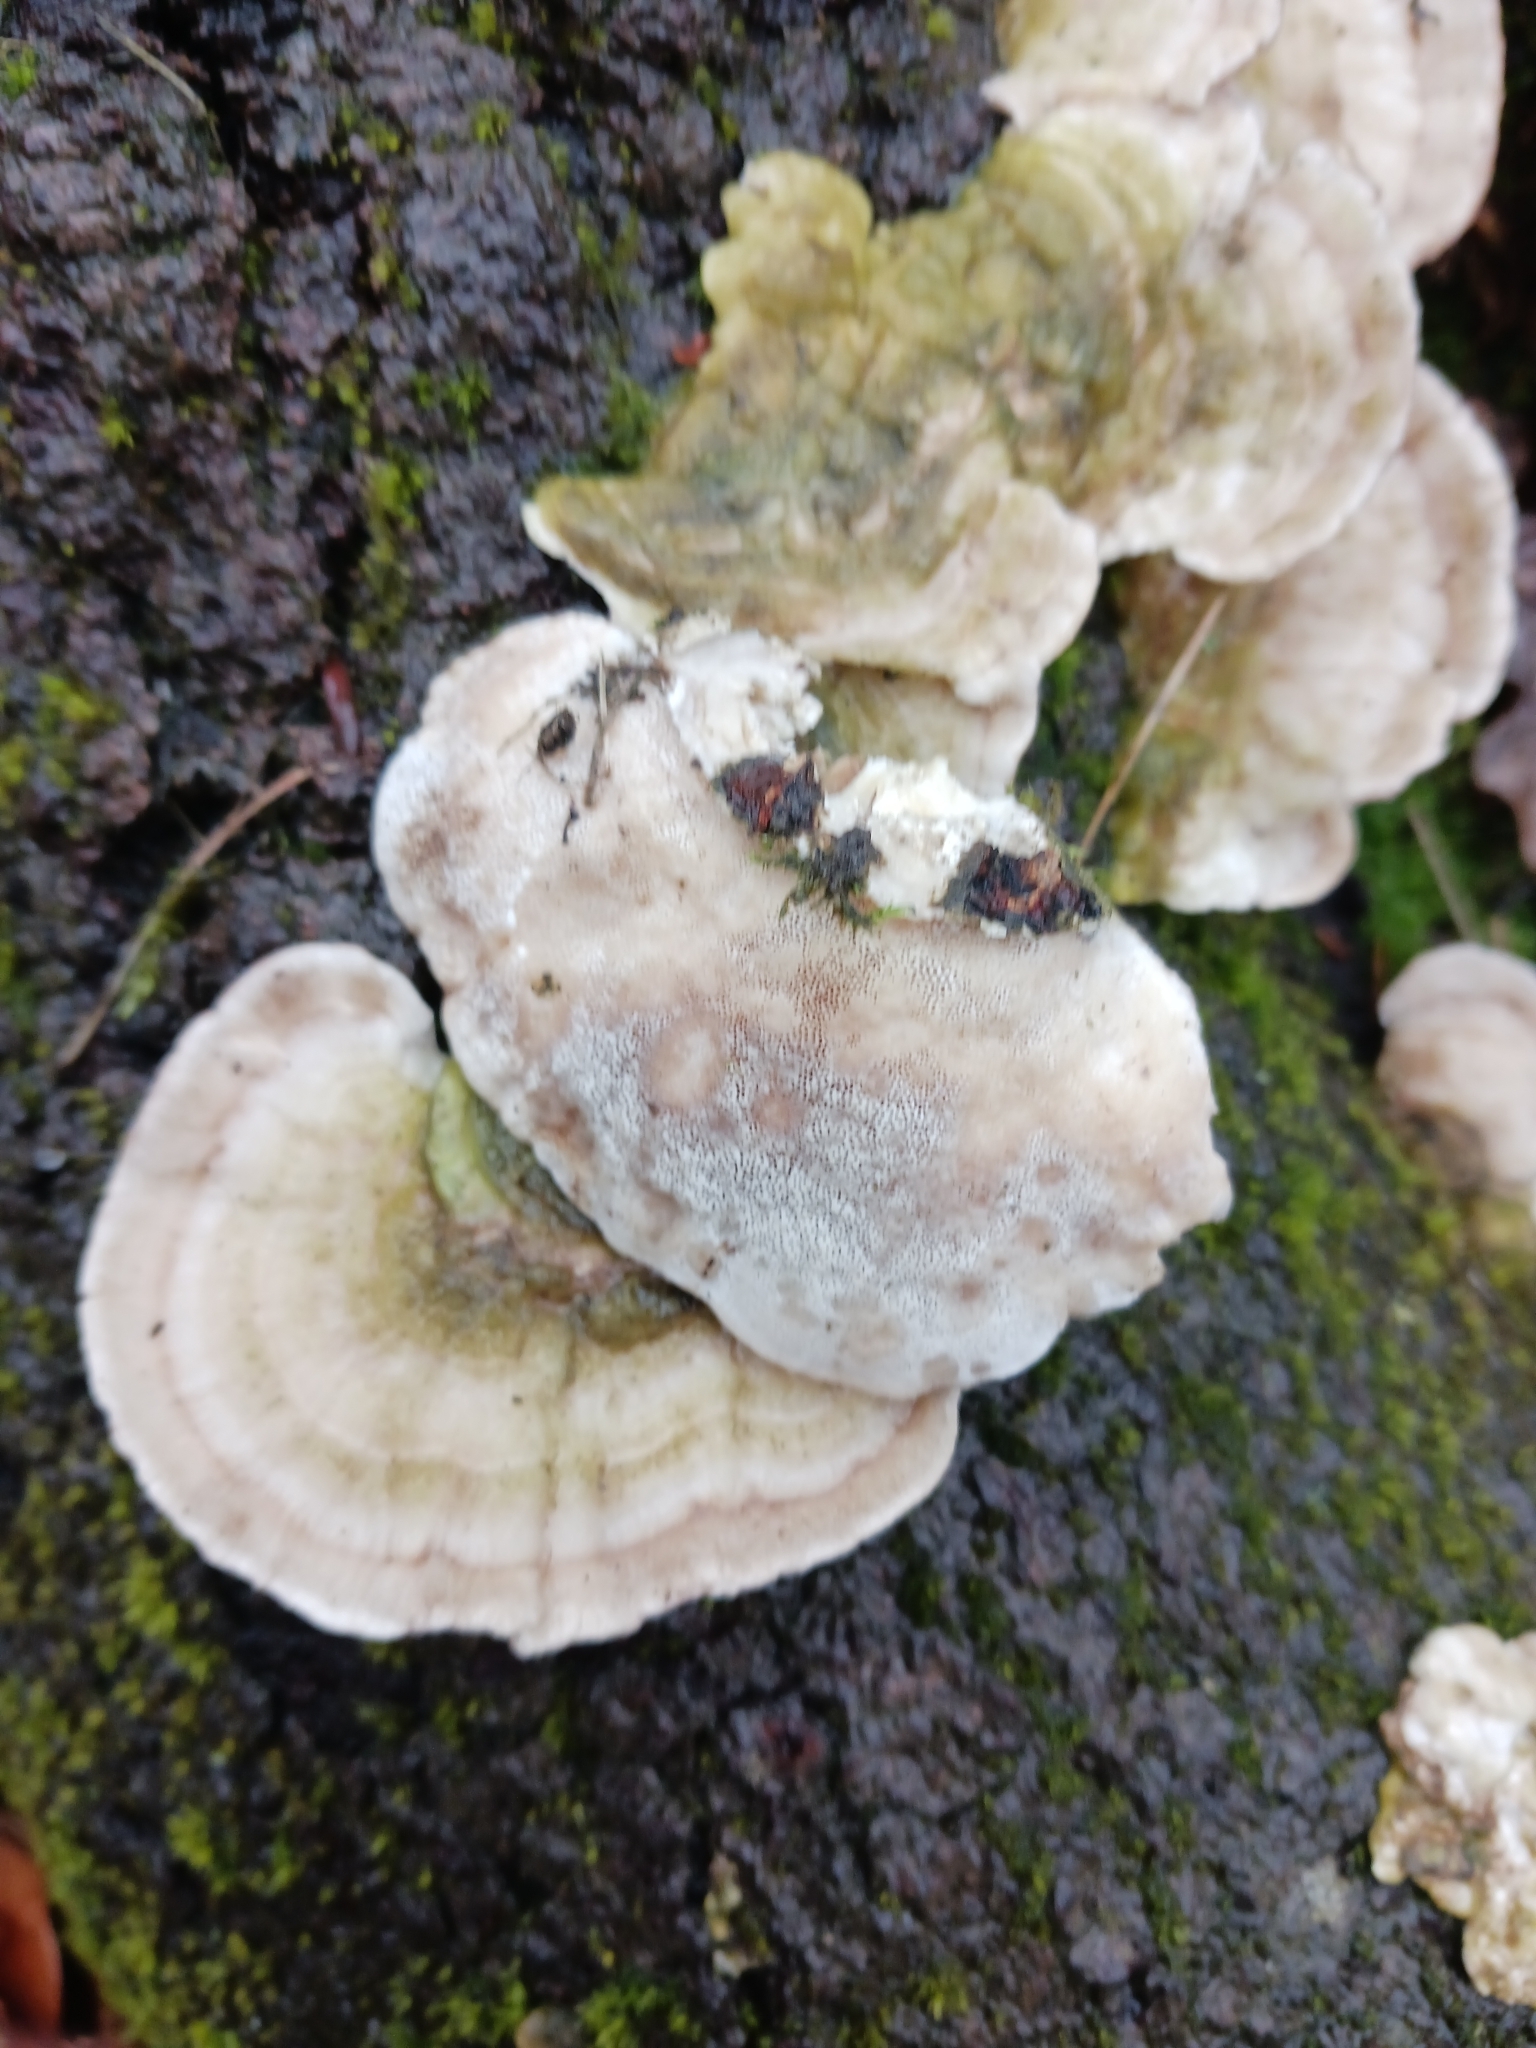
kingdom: Fungi
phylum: Basidiomycota
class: Agaricomycetes
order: Polyporales
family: Polyporaceae
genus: Trametes
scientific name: Trametes hirsuta
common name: Hairy bracket
